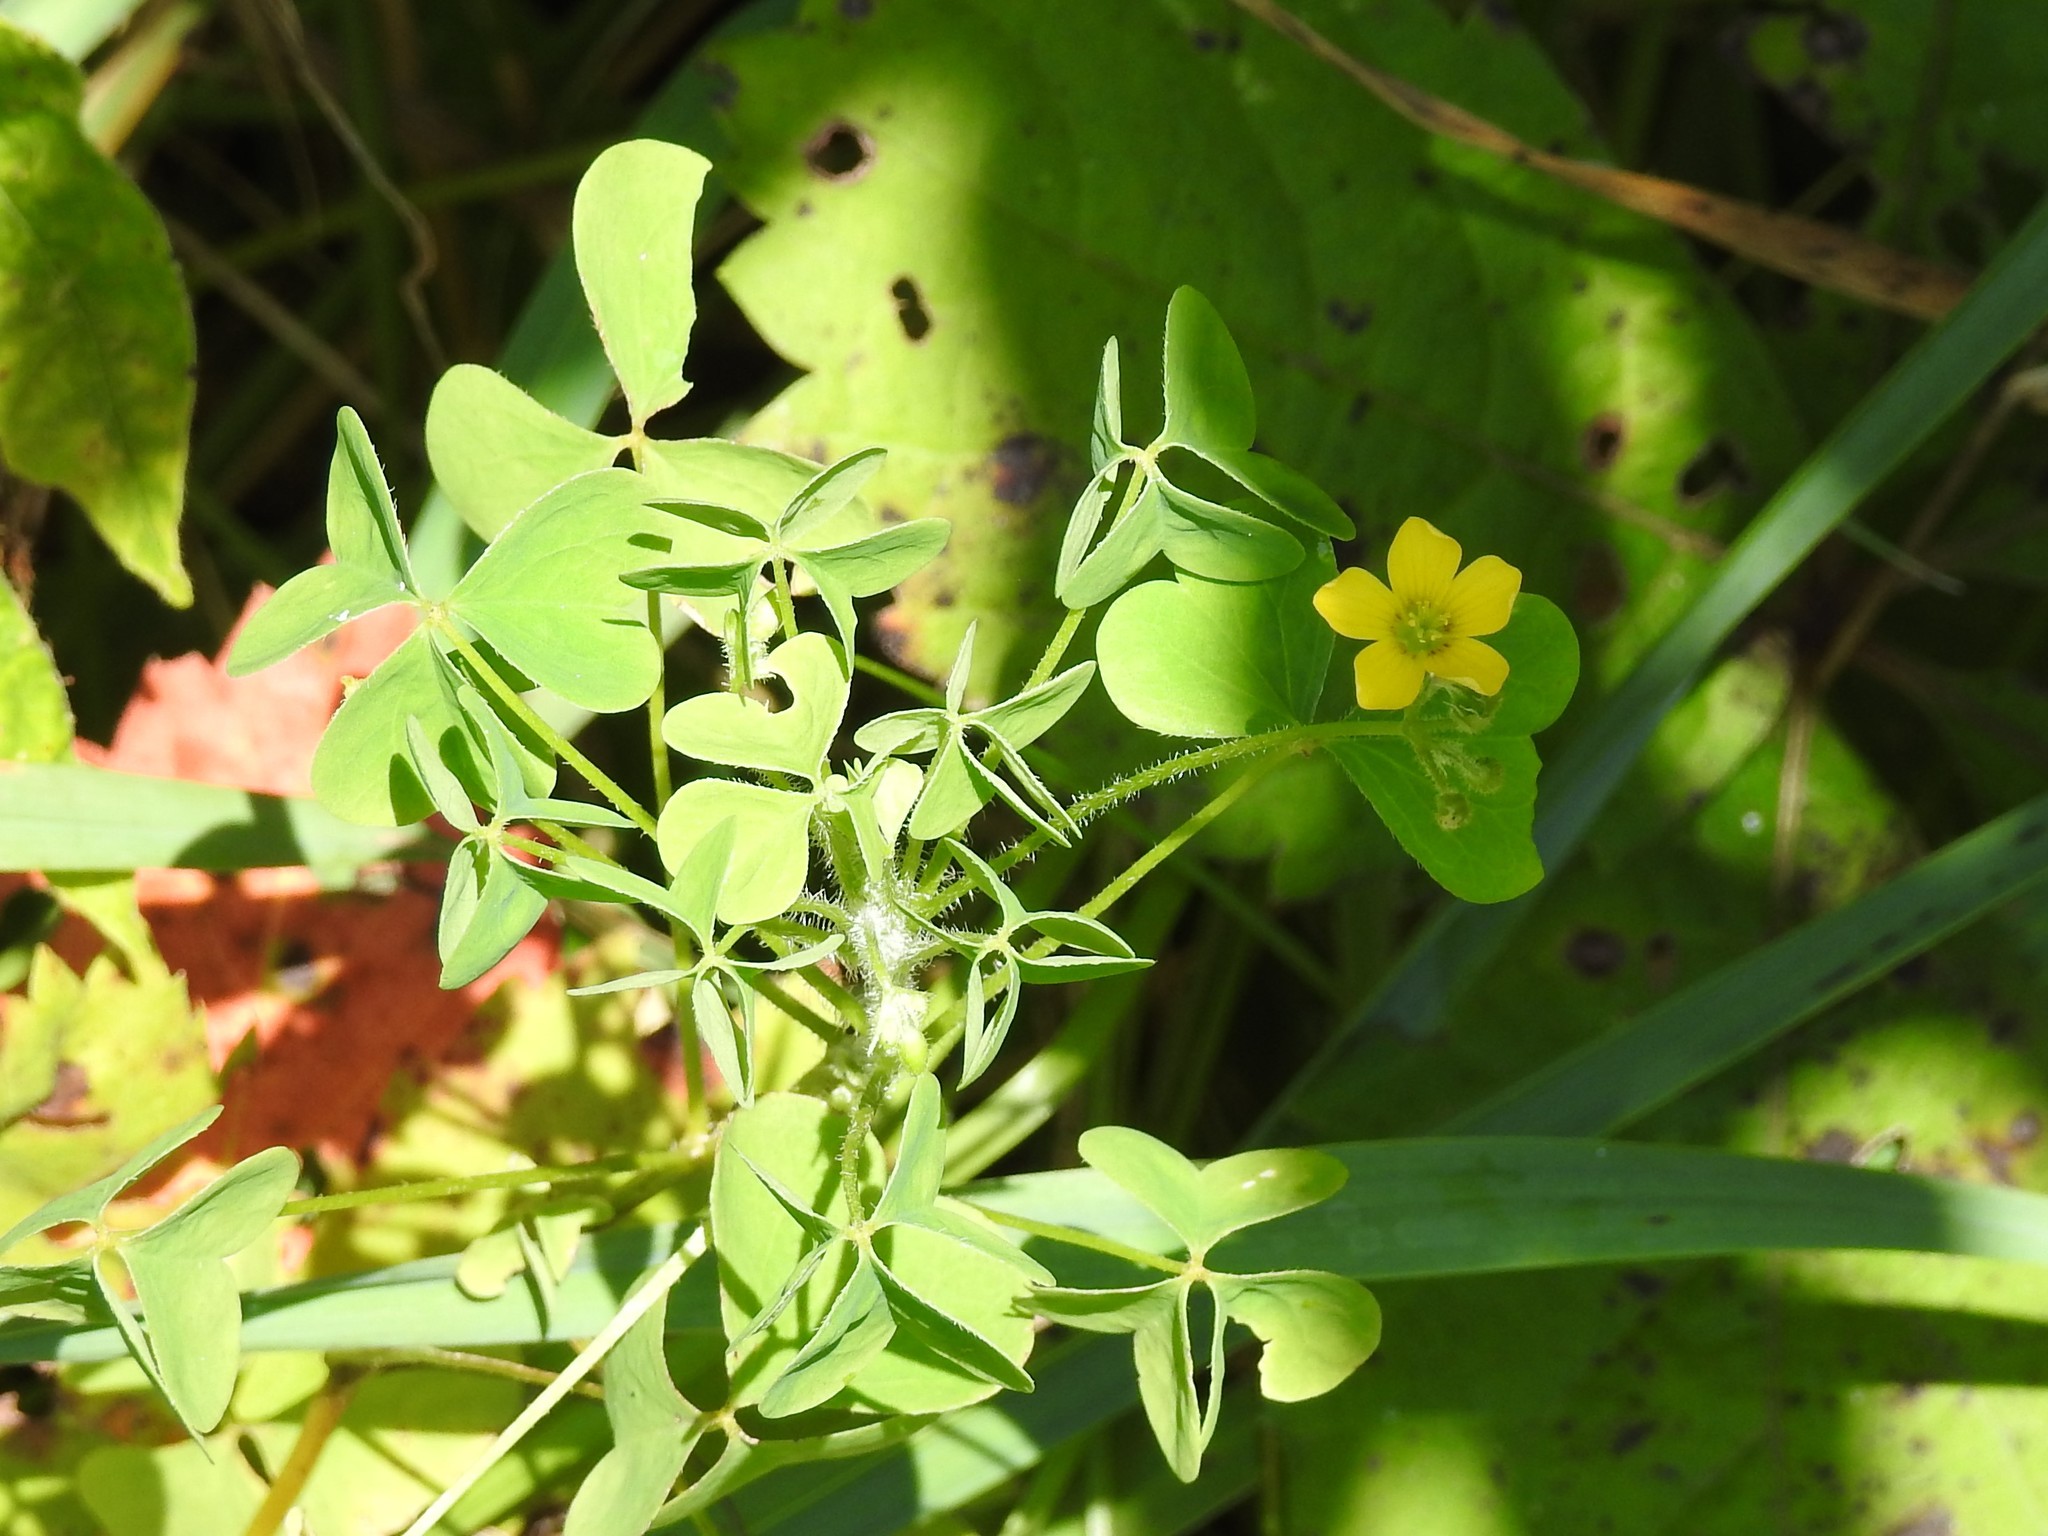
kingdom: Plantae
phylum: Tracheophyta
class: Magnoliopsida
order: Oxalidales
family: Oxalidaceae
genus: Oxalis
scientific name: Oxalis stricta
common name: Upright yellow-sorrel
